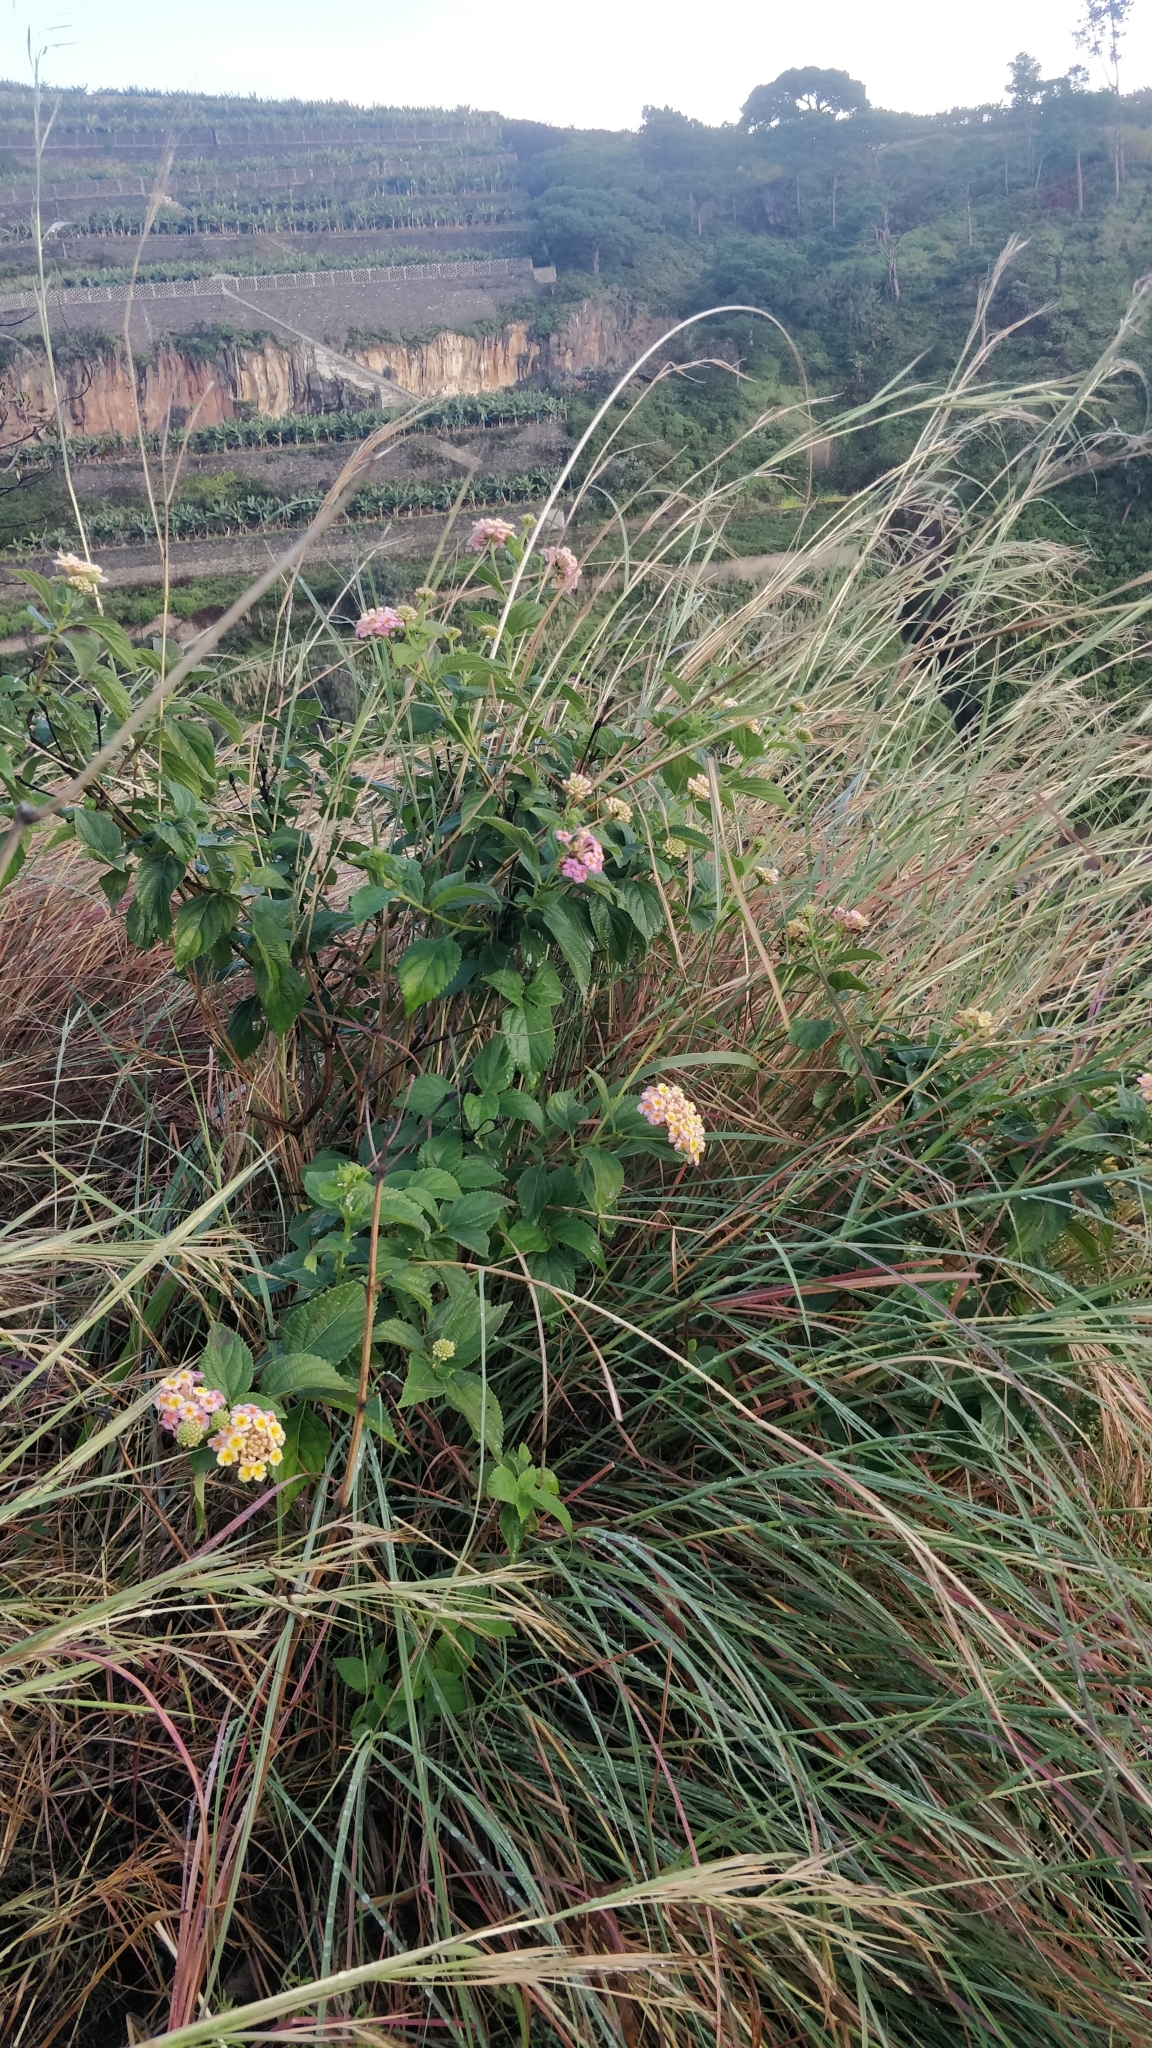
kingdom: Plantae
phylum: Tracheophyta
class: Magnoliopsida
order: Lamiales
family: Verbenaceae
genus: Lantana
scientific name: Lantana camara
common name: Lantana
